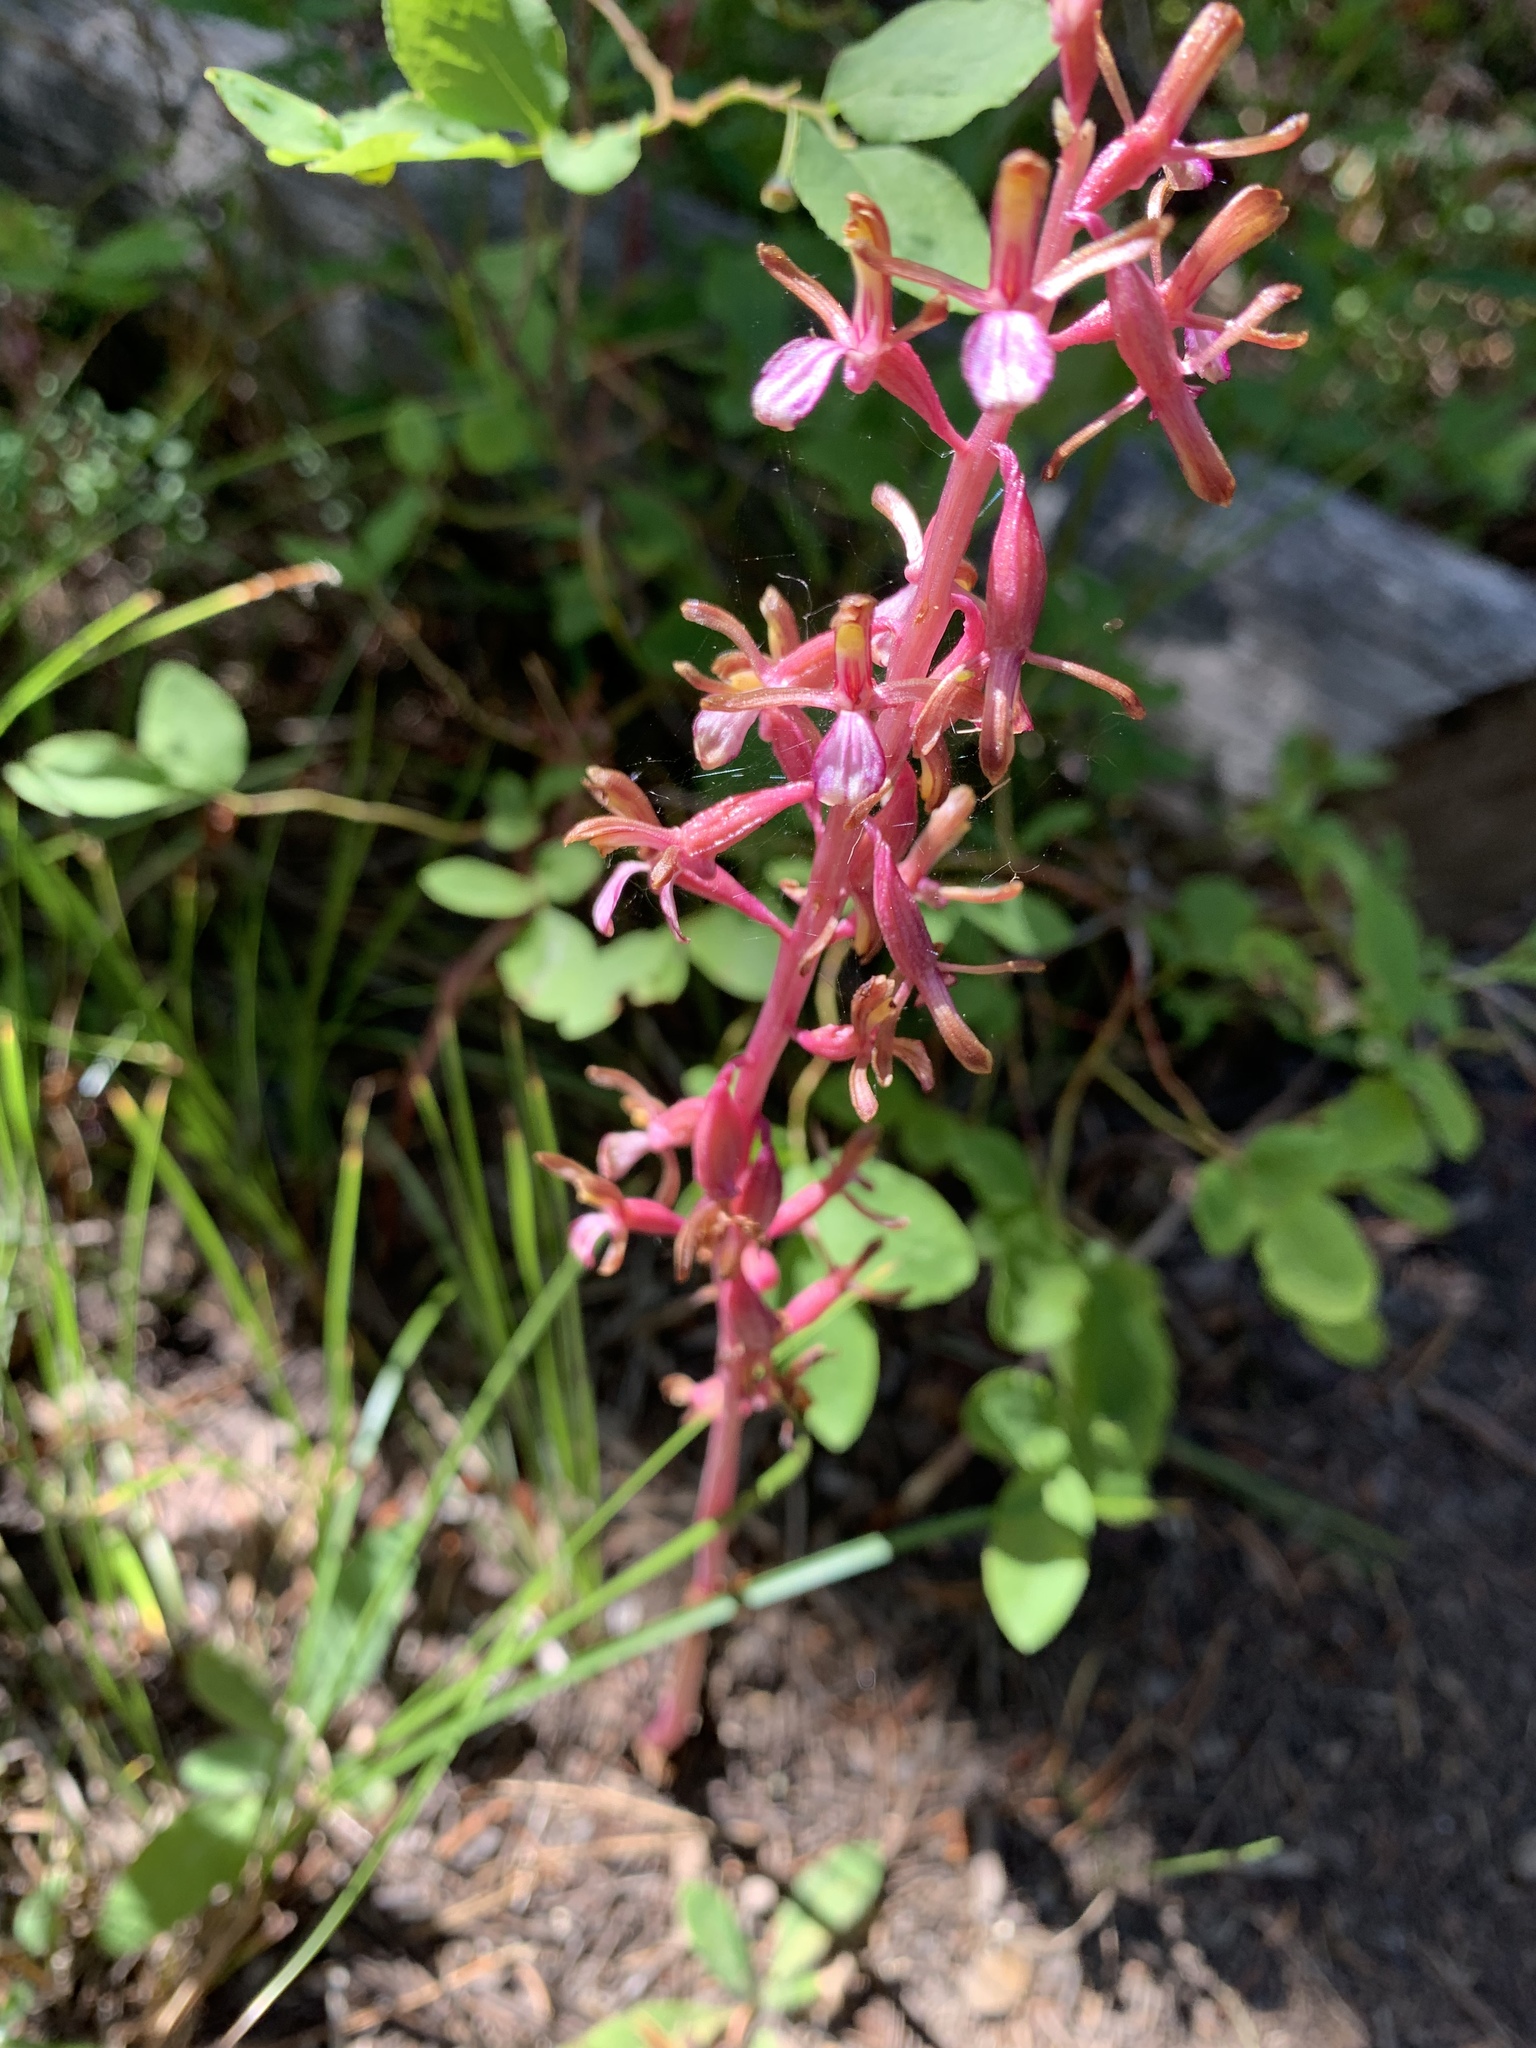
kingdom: Plantae
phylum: Tracheophyta
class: Liliopsida
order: Asparagales
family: Orchidaceae
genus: Corallorhiza
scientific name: Corallorhiza mertensiana
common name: Pacific coralroot
